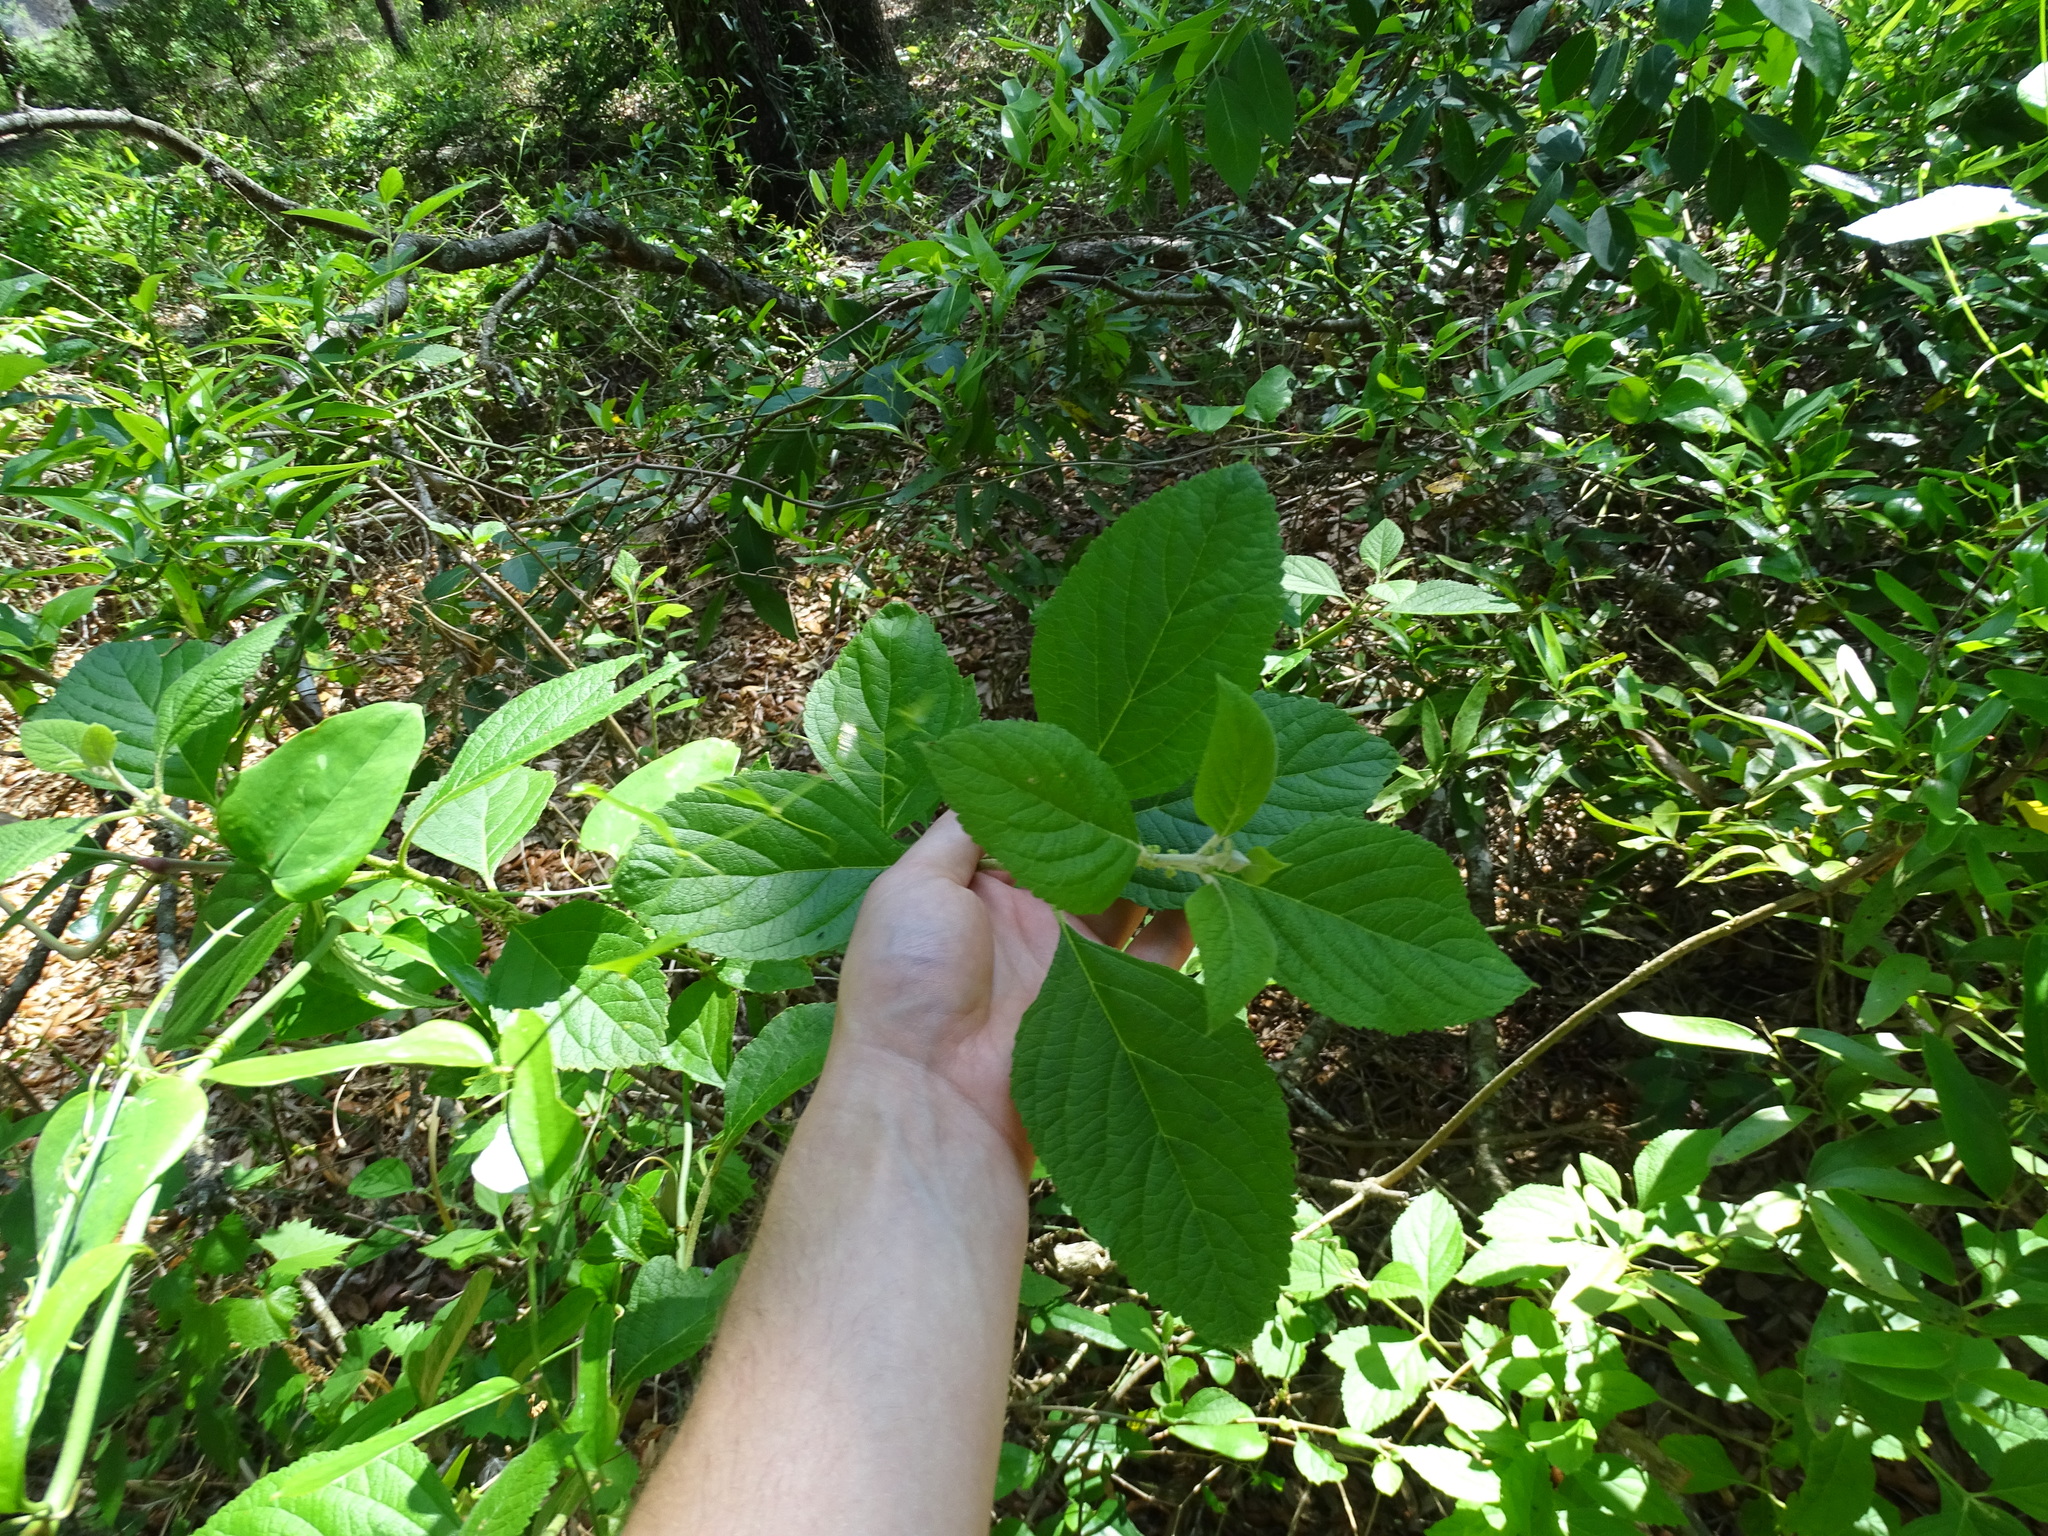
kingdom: Plantae
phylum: Tracheophyta
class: Magnoliopsida
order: Lamiales
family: Lamiaceae
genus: Callicarpa
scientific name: Callicarpa americana
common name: American beautyberry
